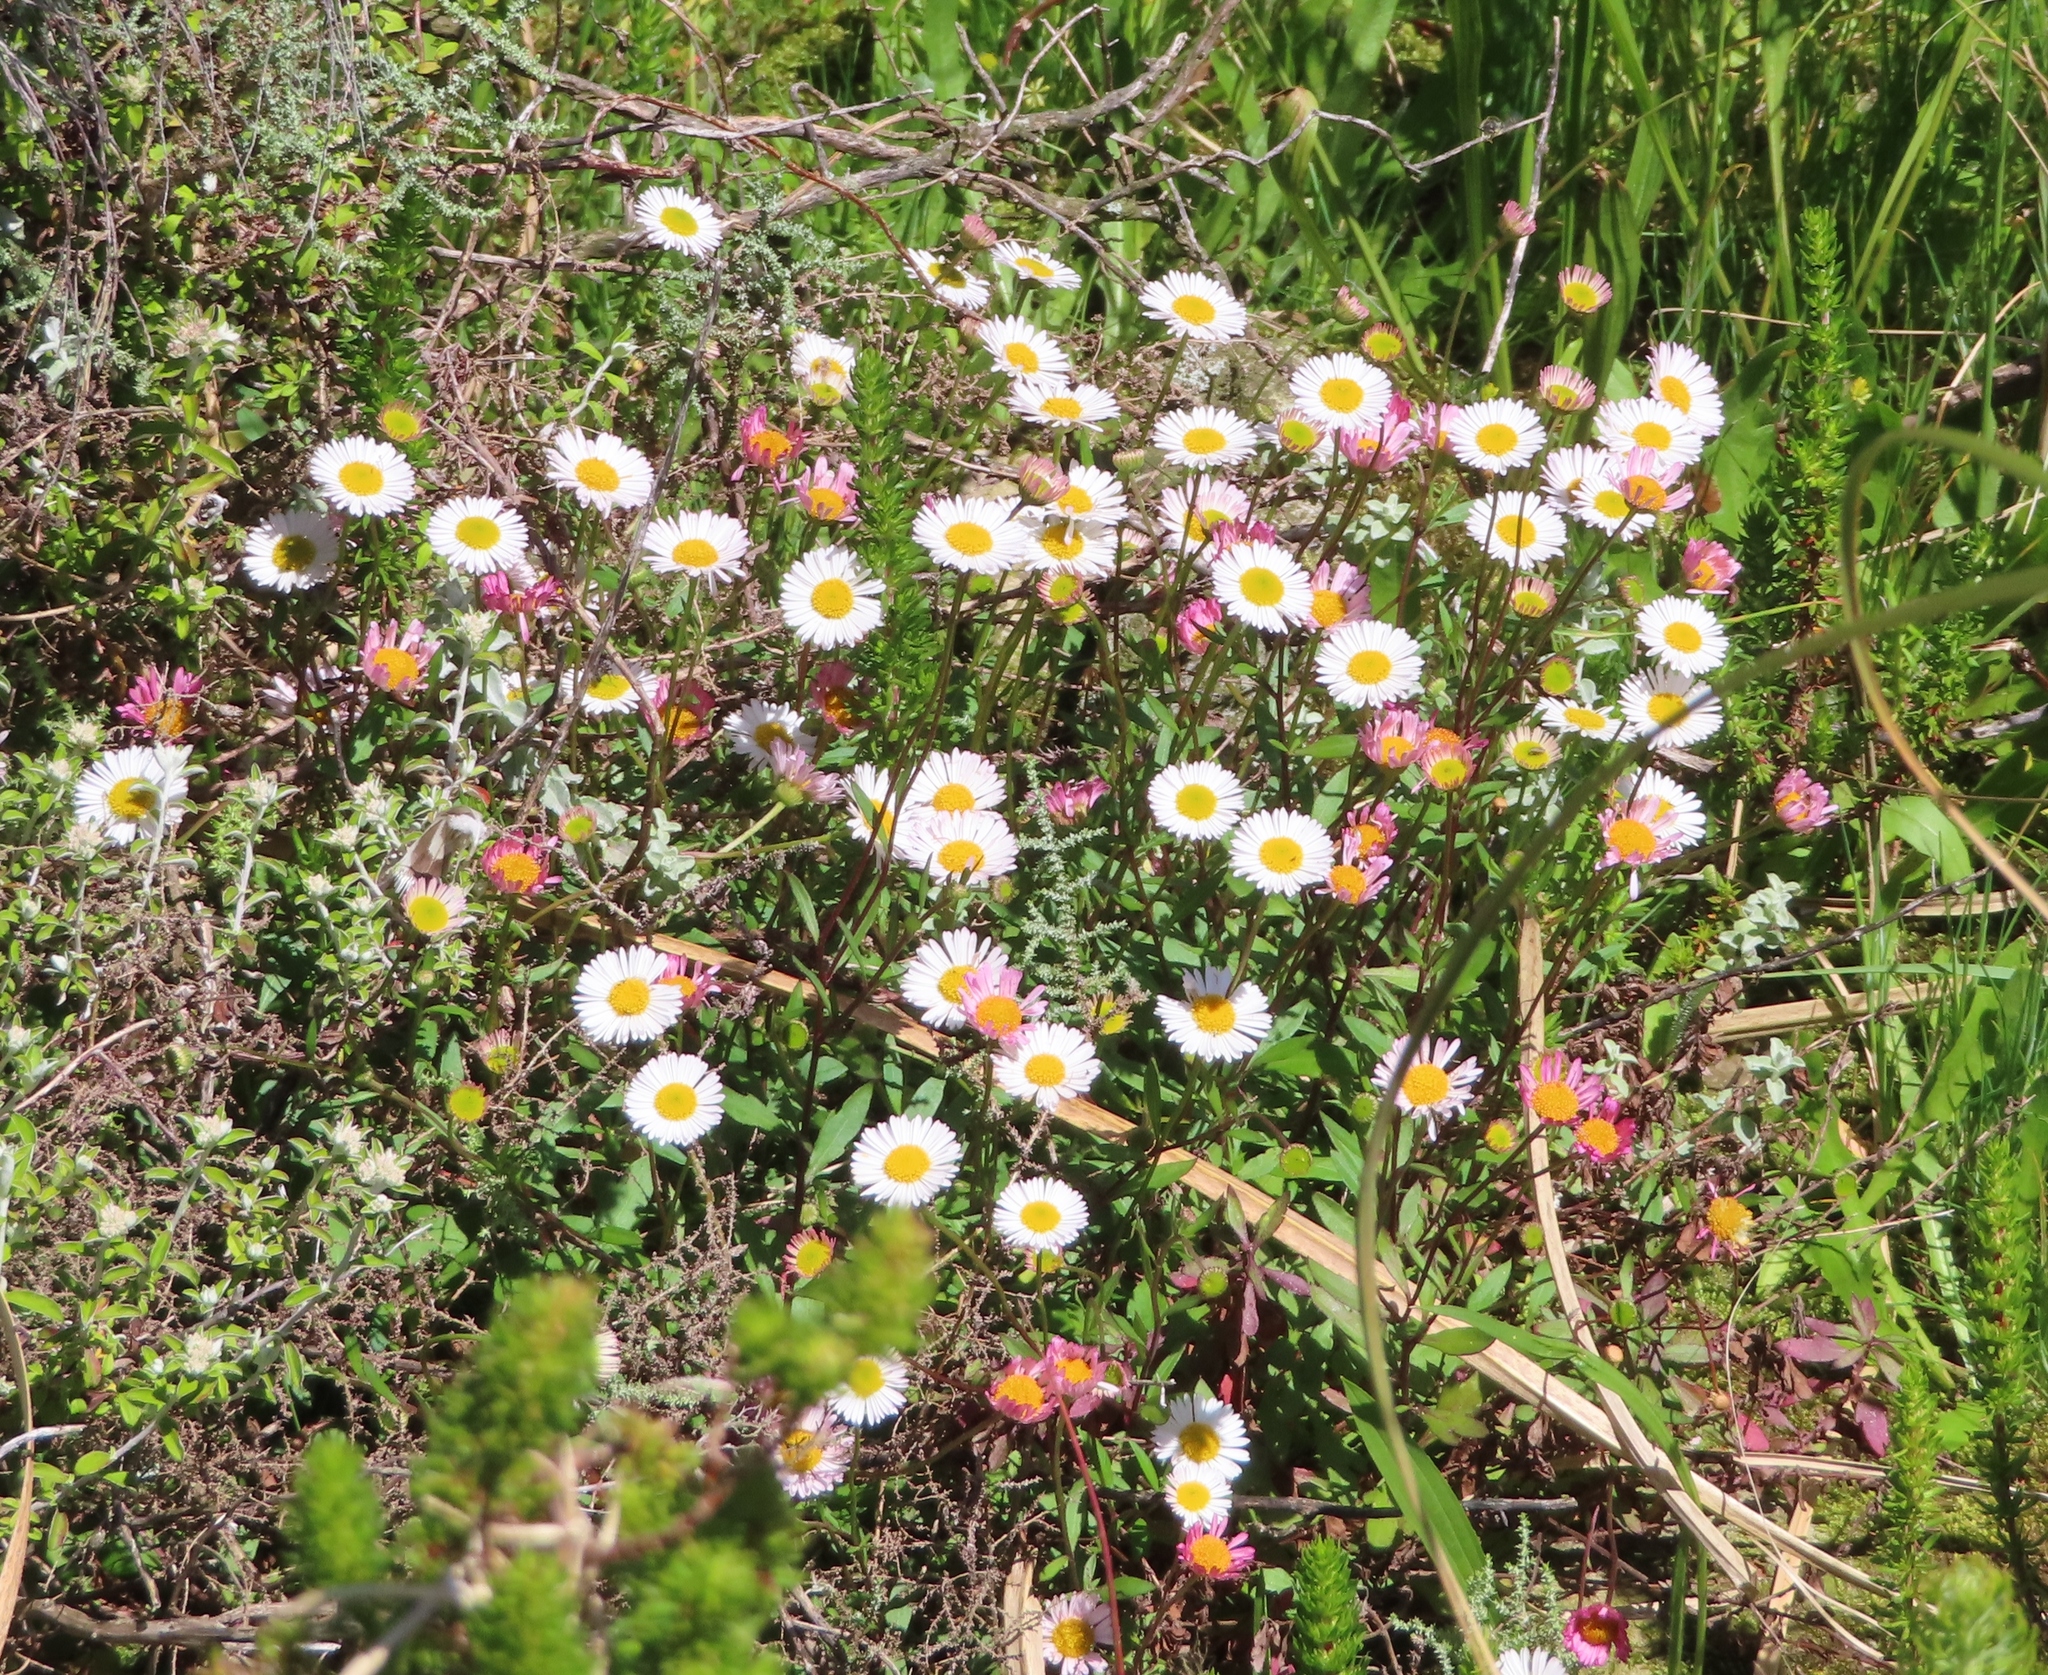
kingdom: Plantae
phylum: Tracheophyta
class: Magnoliopsida
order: Asterales
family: Asteraceae
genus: Erigeron
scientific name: Erigeron karvinskianus
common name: Mexican fleabane
